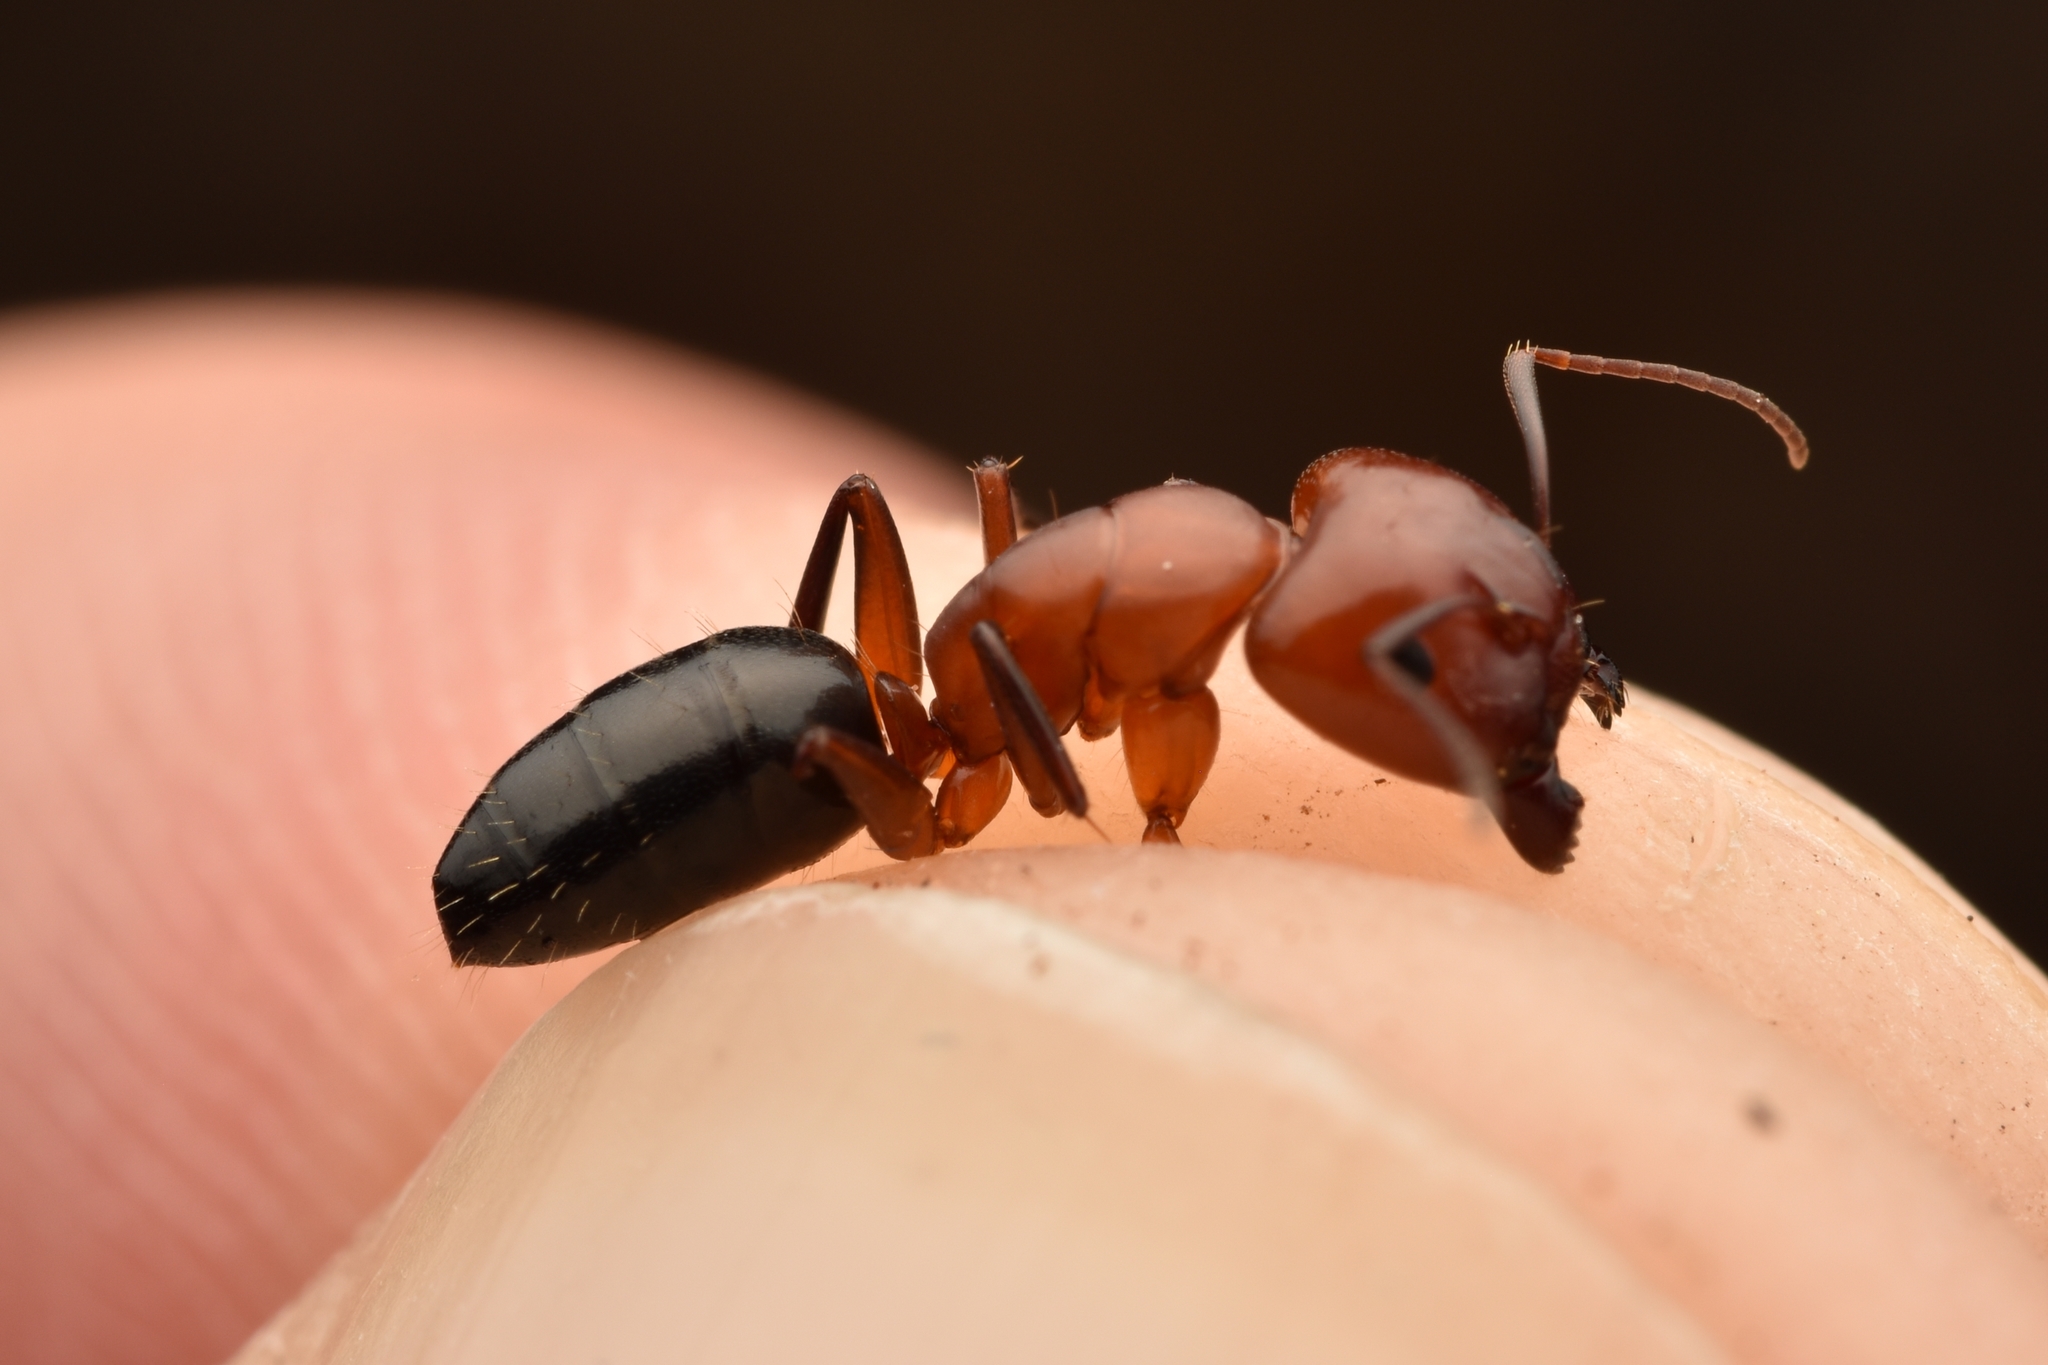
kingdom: Animalia
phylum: Arthropoda
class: Insecta
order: Hymenoptera
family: Formicidae
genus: Camponotus
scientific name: Camponotus decipiens
